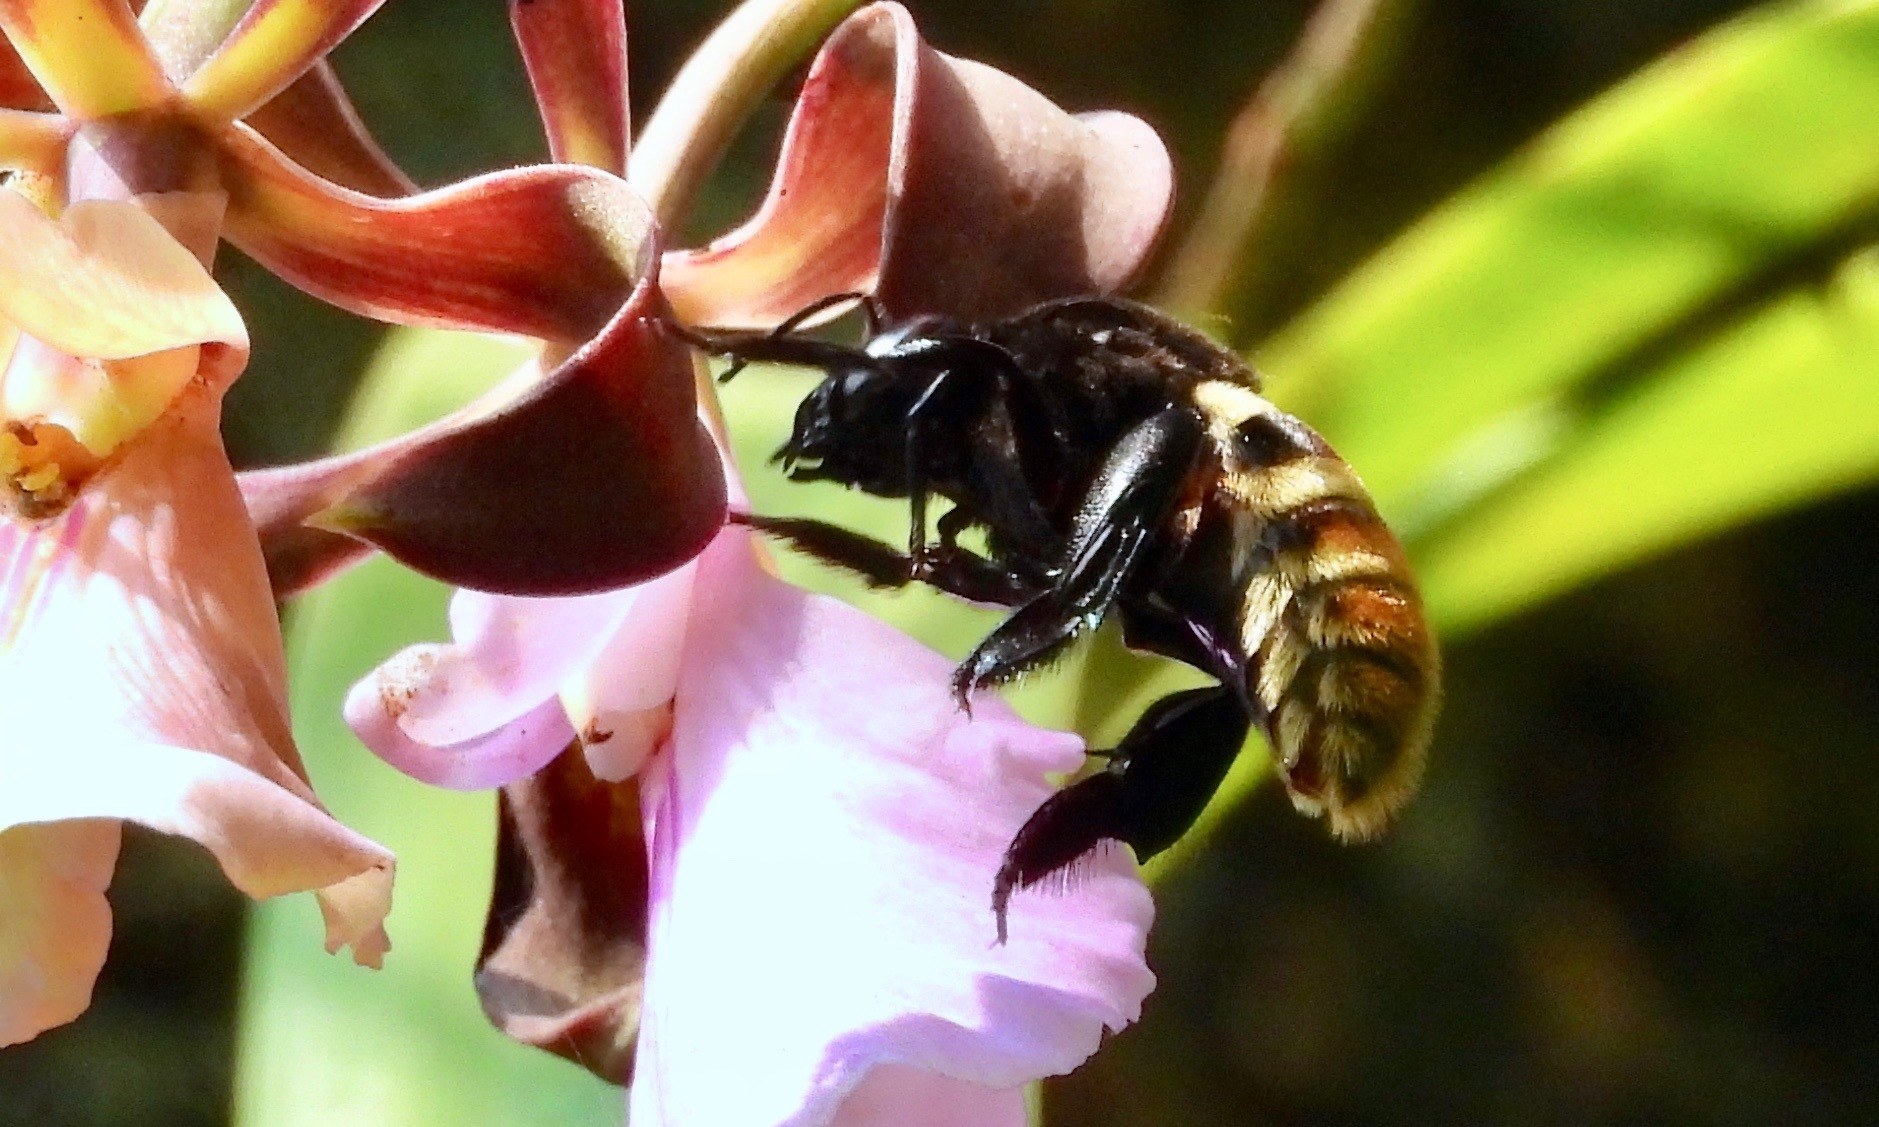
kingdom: Animalia
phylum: Arthropoda
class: Insecta
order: Hymenoptera
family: Apidae
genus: Eulaema
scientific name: Eulaema meriana
